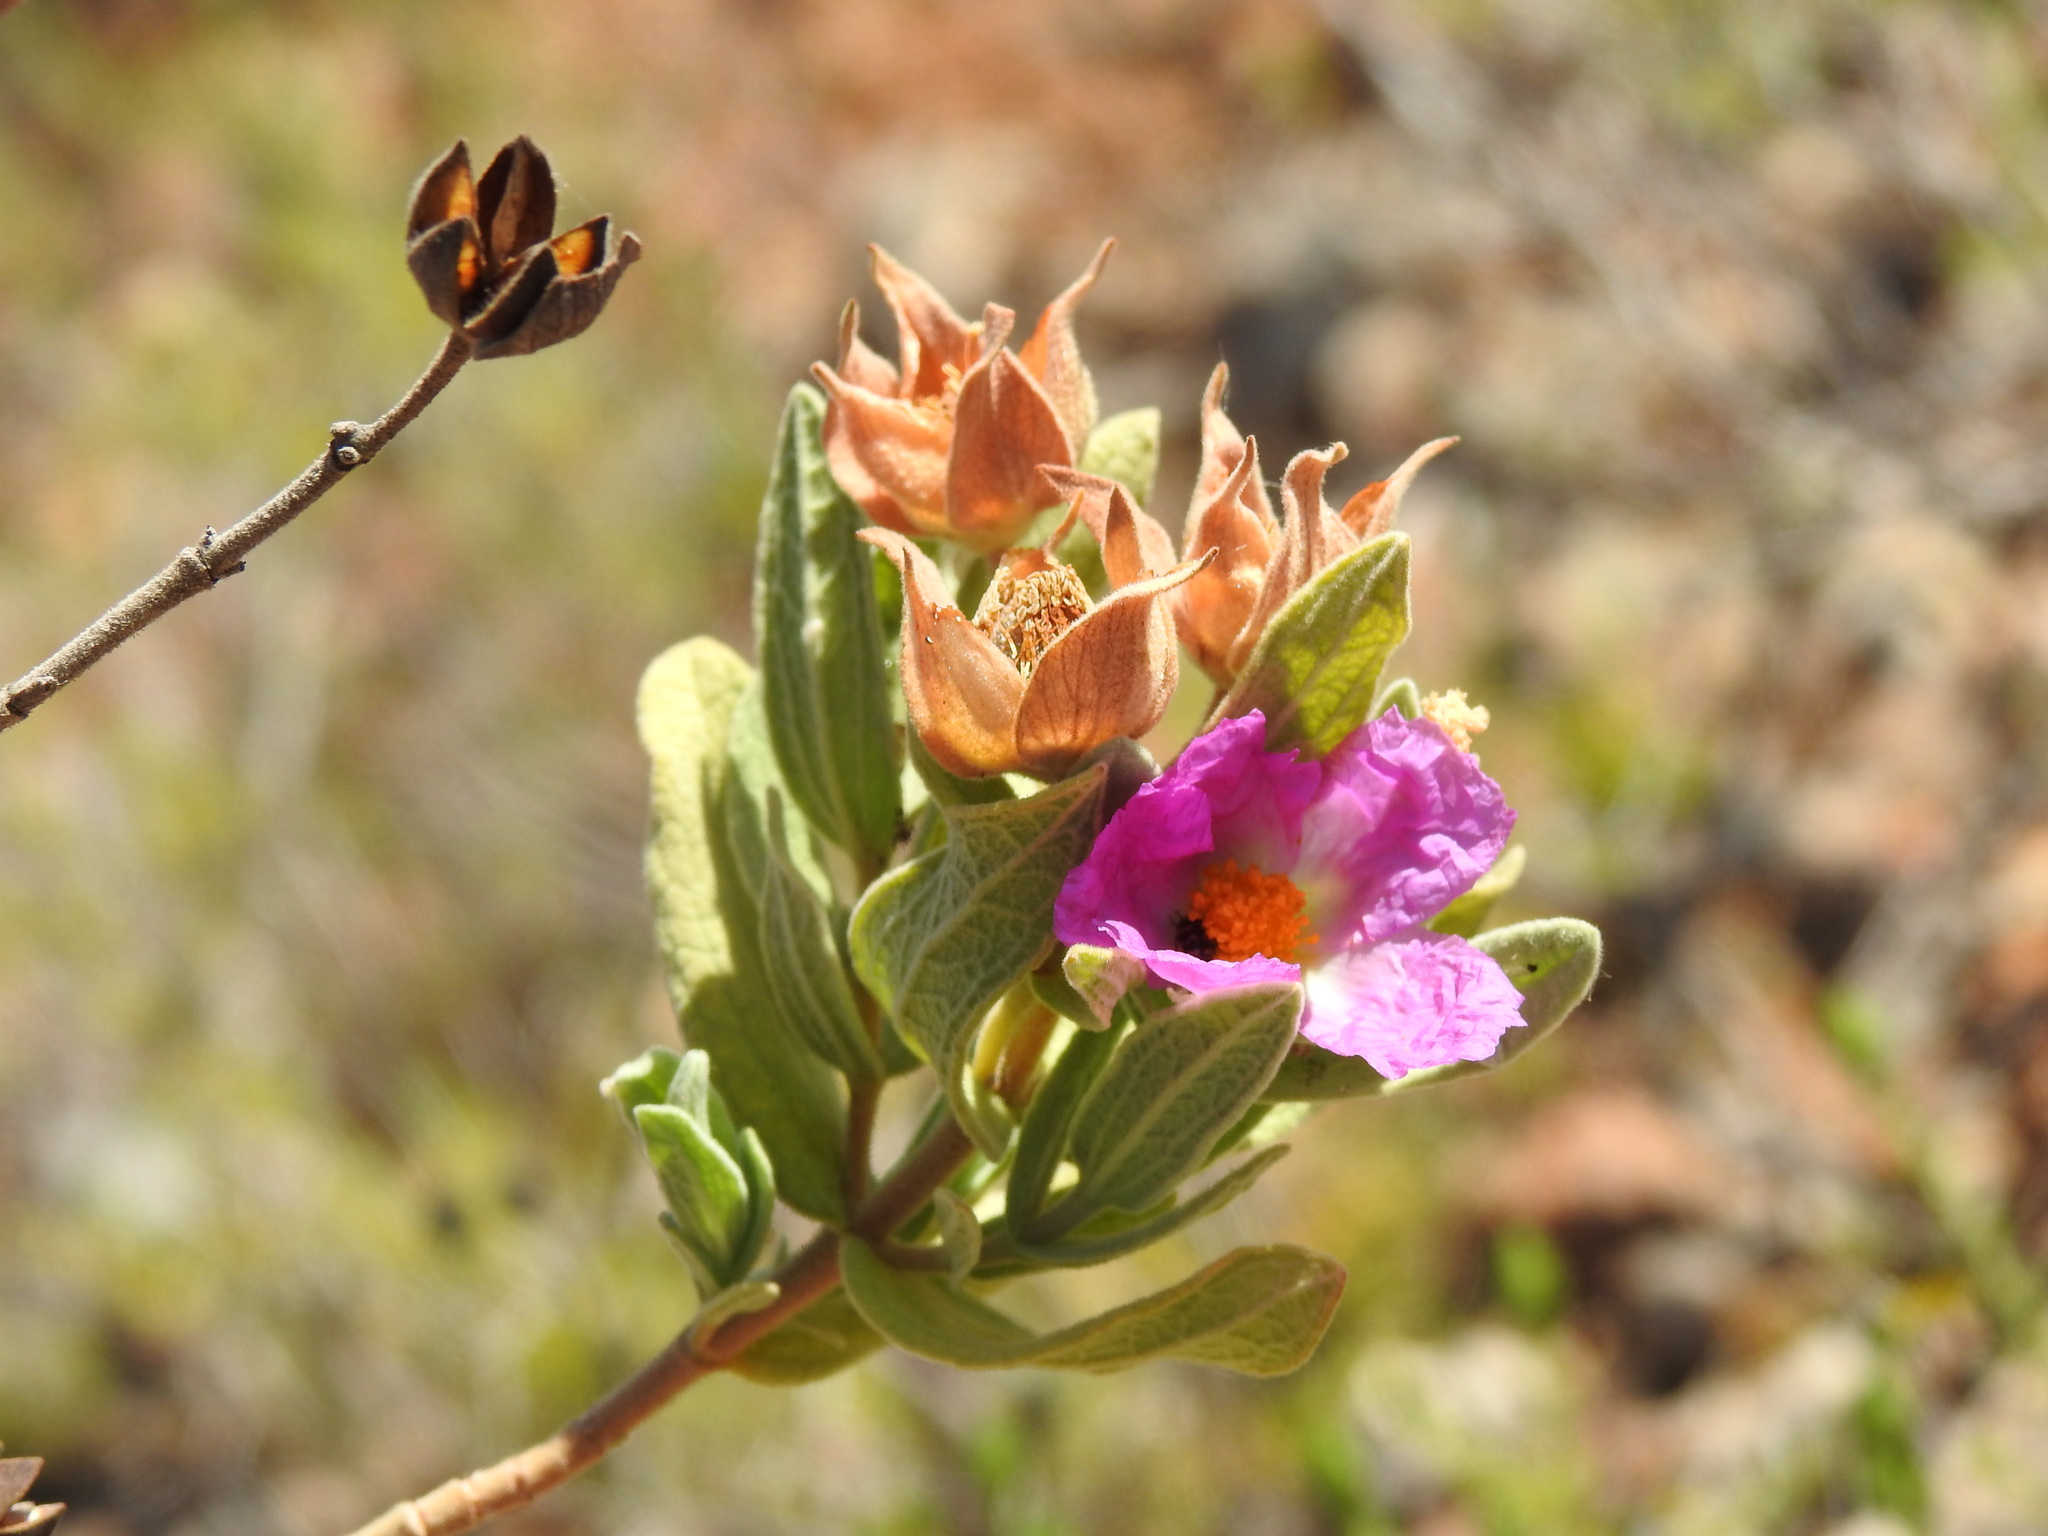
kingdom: Plantae
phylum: Tracheophyta
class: Magnoliopsida
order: Malvales
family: Cistaceae
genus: Cistus
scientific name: Cistus albidus
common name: White-leaf rock-rose
